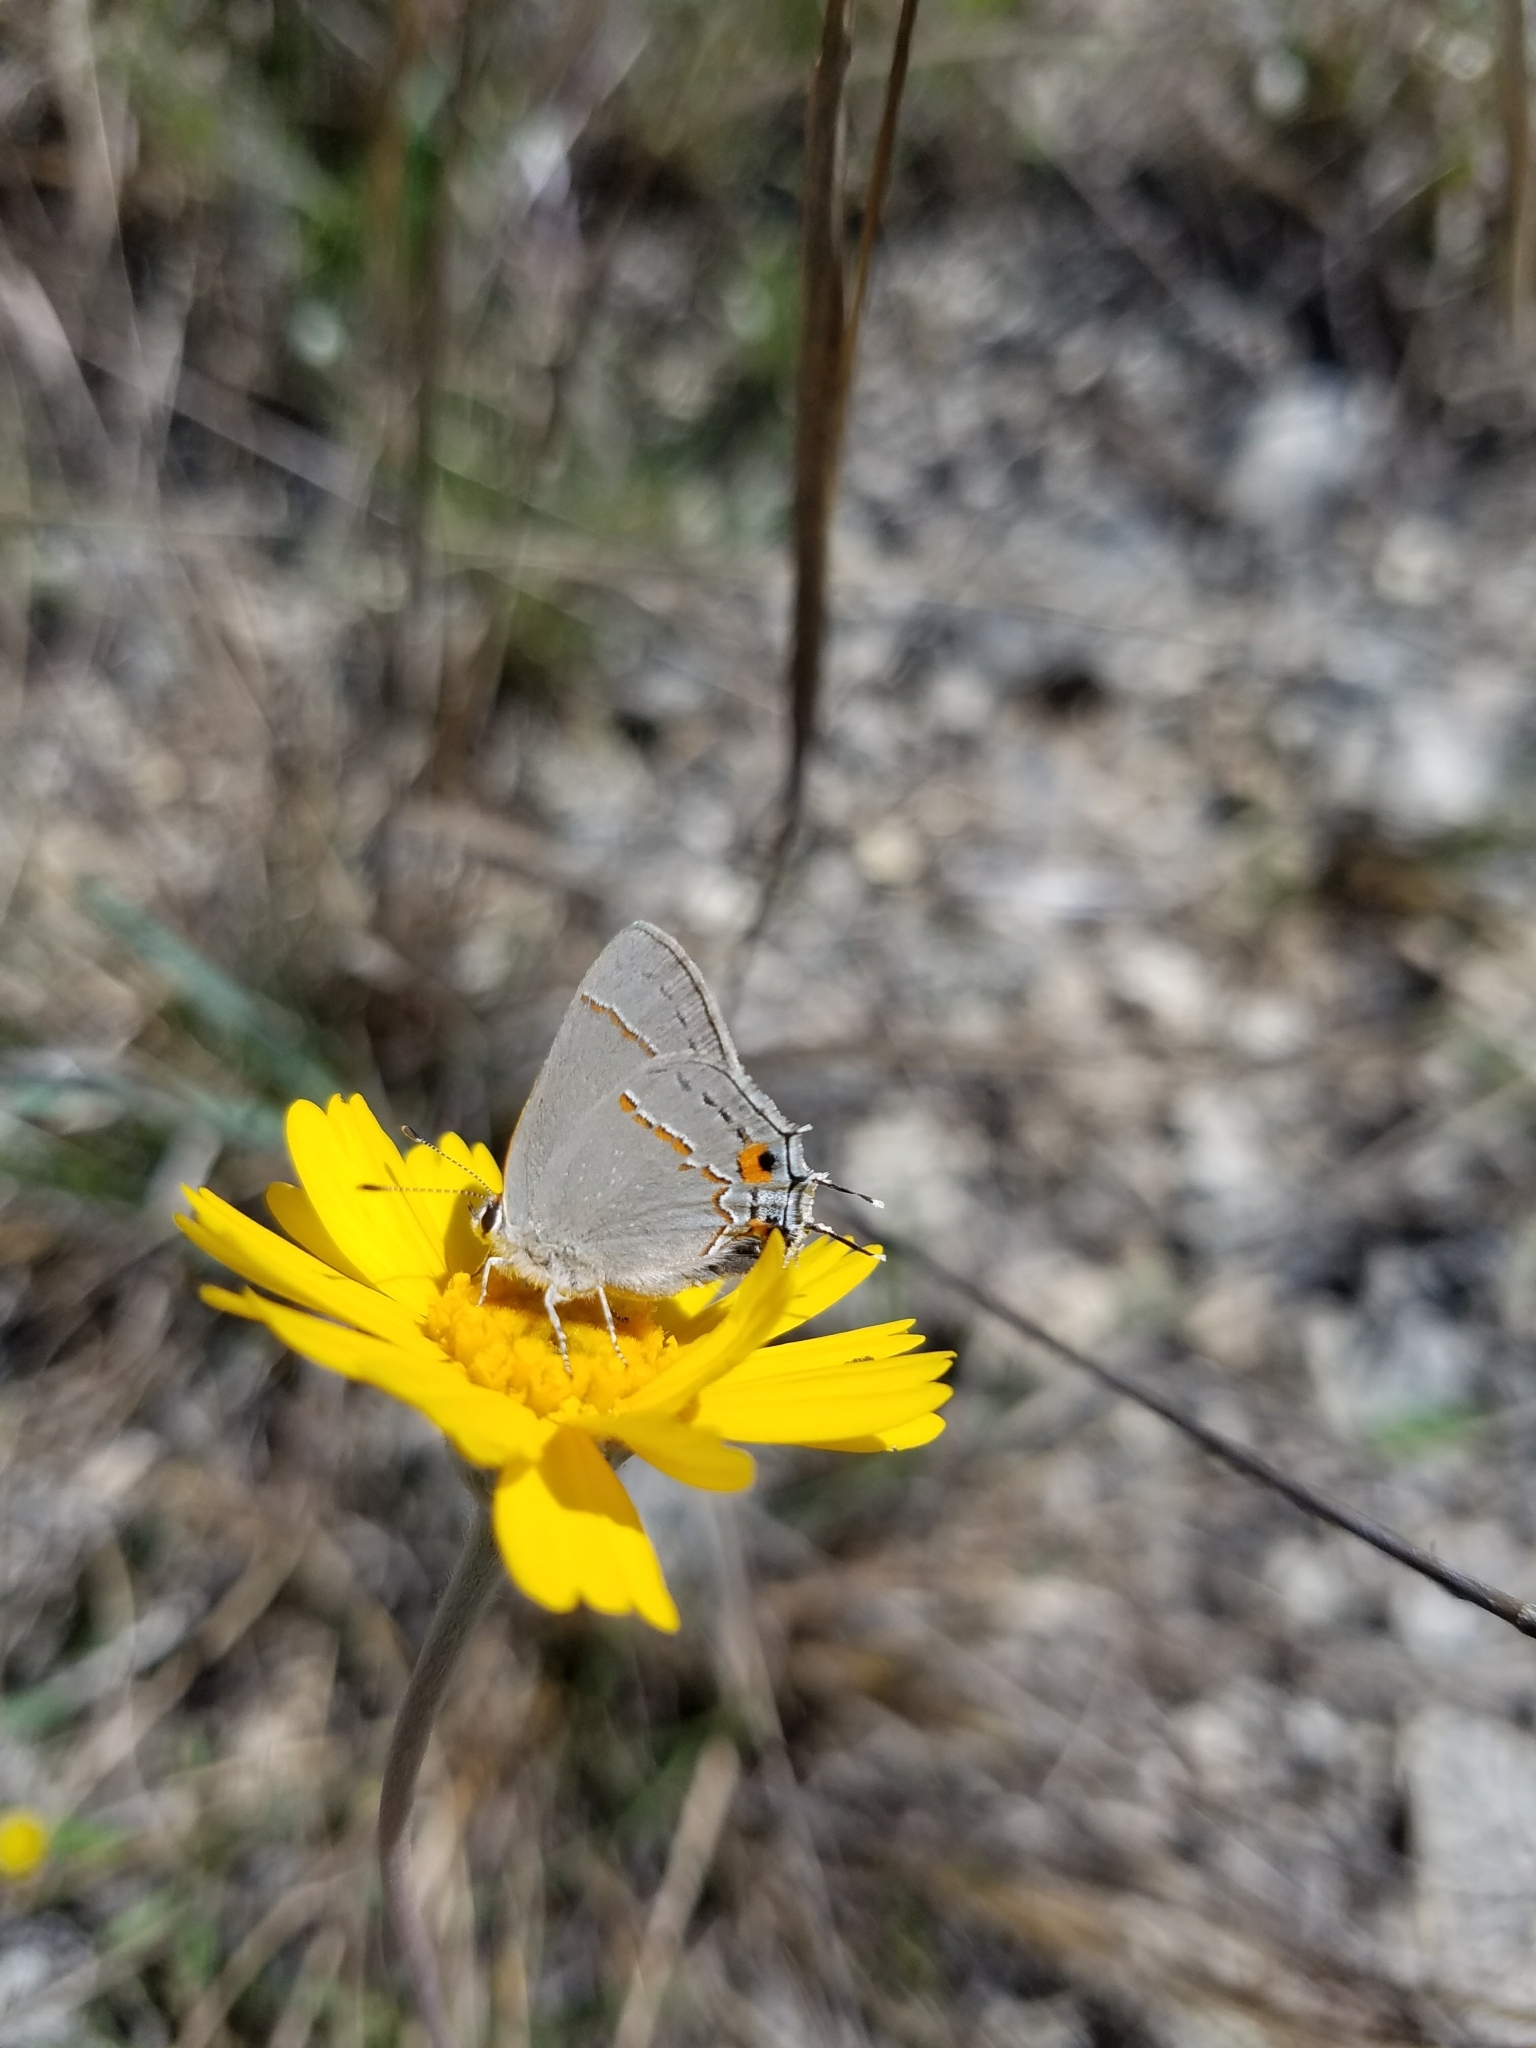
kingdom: Animalia
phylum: Arthropoda
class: Insecta
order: Lepidoptera
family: Lycaenidae
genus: Strymon
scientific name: Strymon melinus
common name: Gray hairstreak
